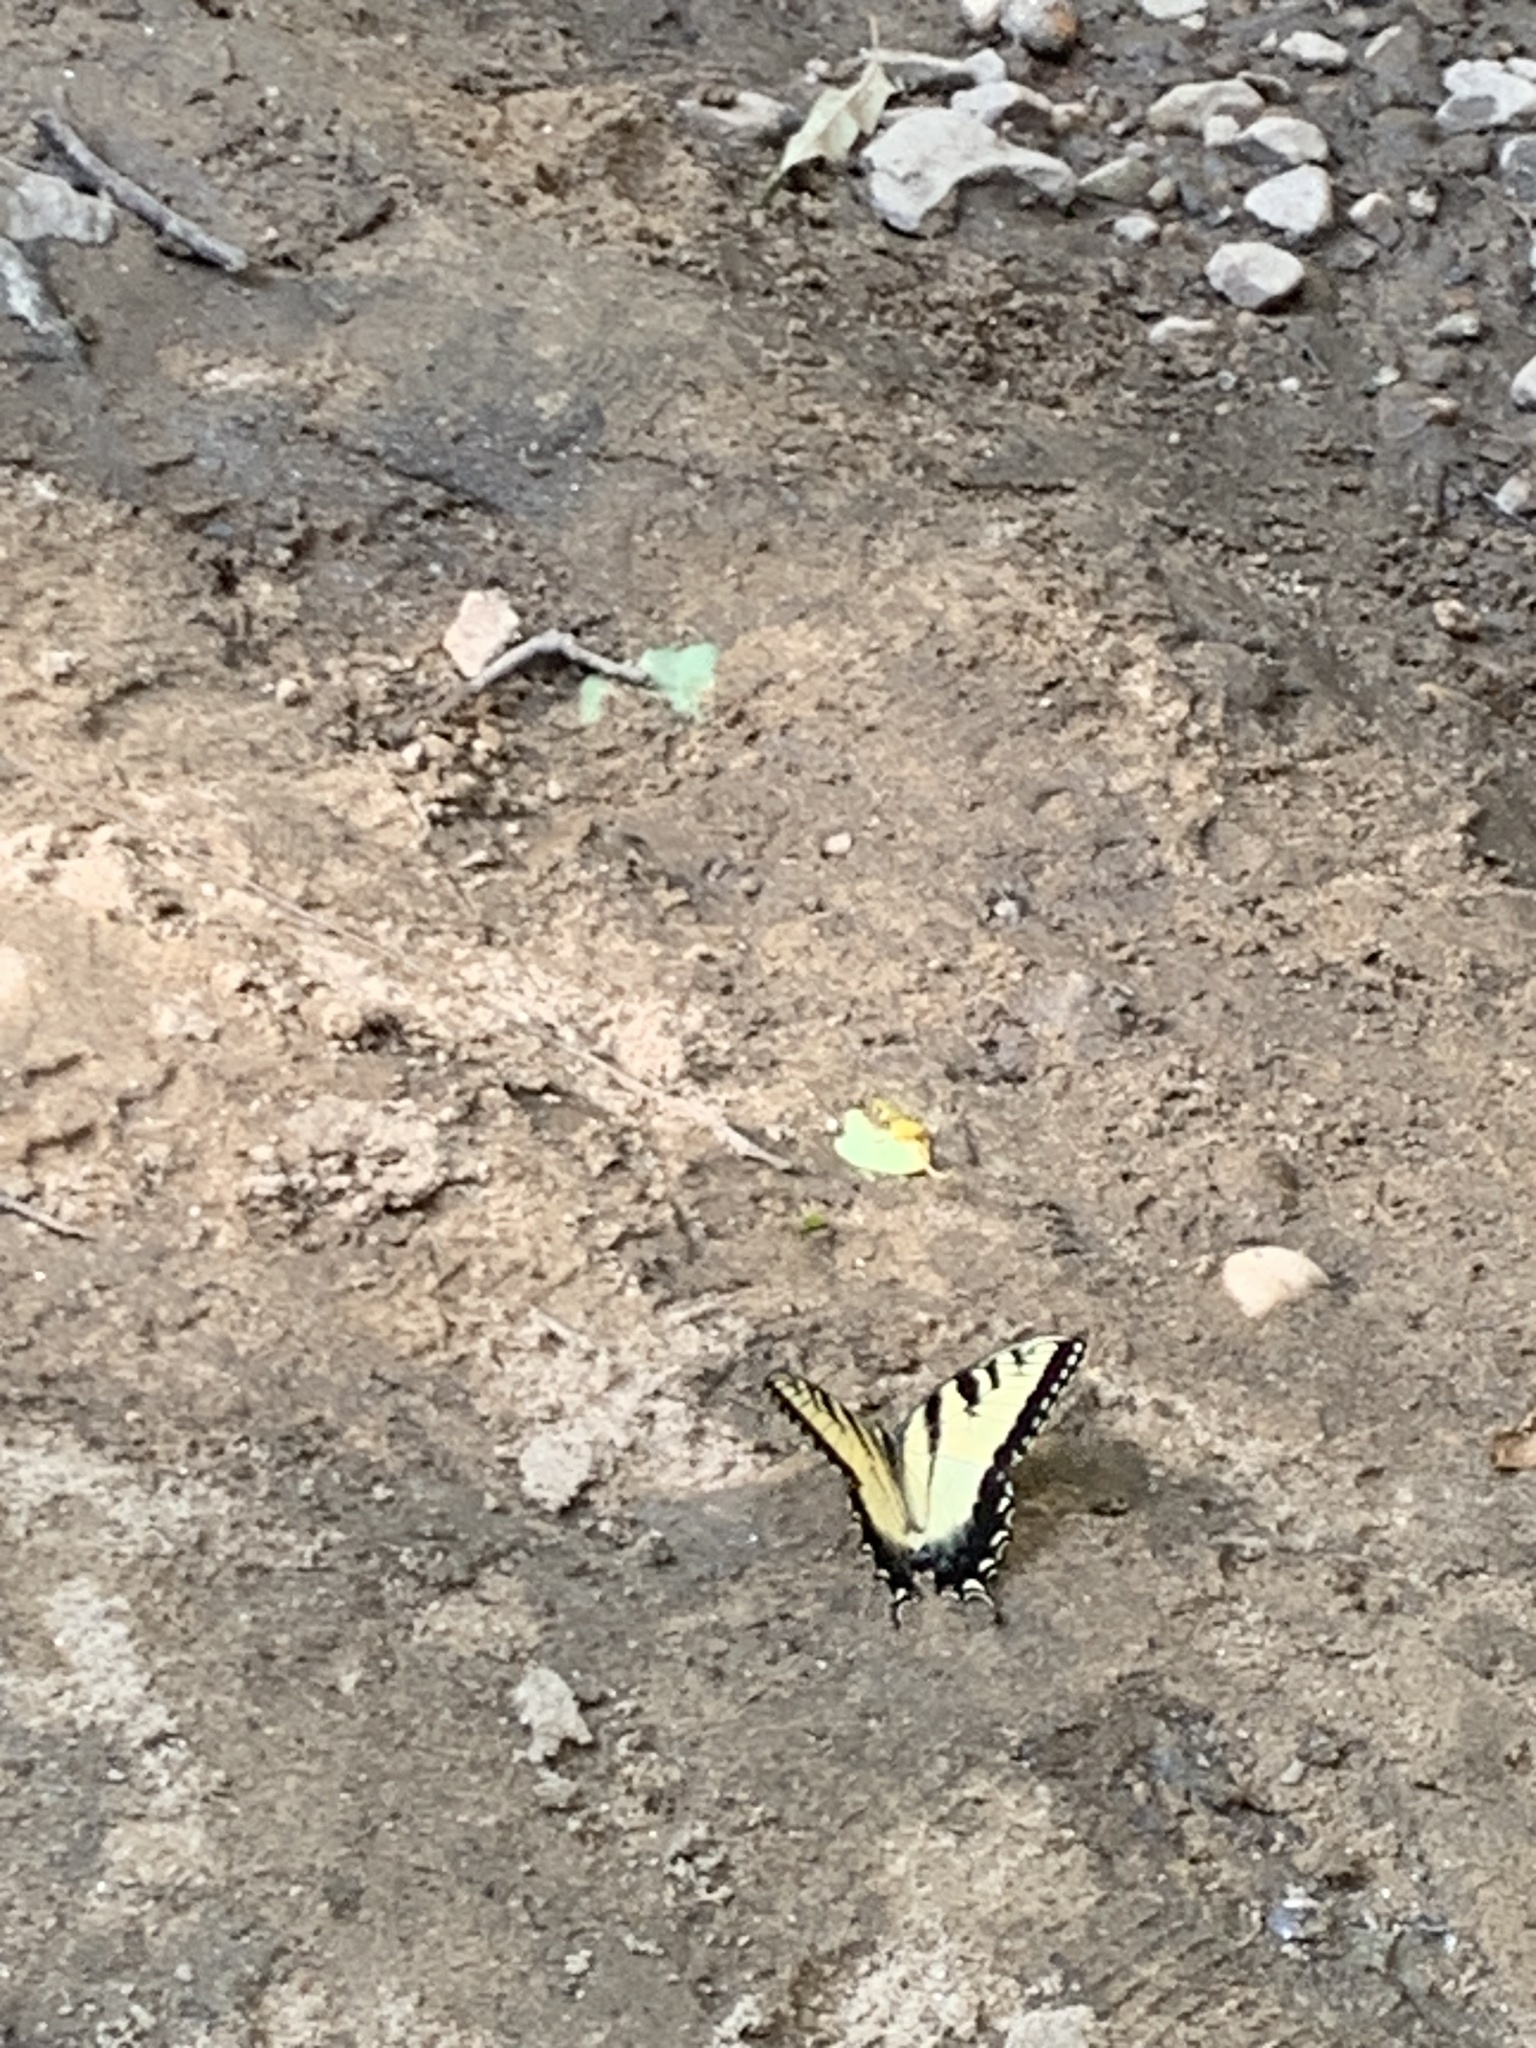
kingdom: Animalia
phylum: Arthropoda
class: Insecta
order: Lepidoptera
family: Papilionidae
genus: Papilio
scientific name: Papilio glaucus
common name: Tiger swallowtail
